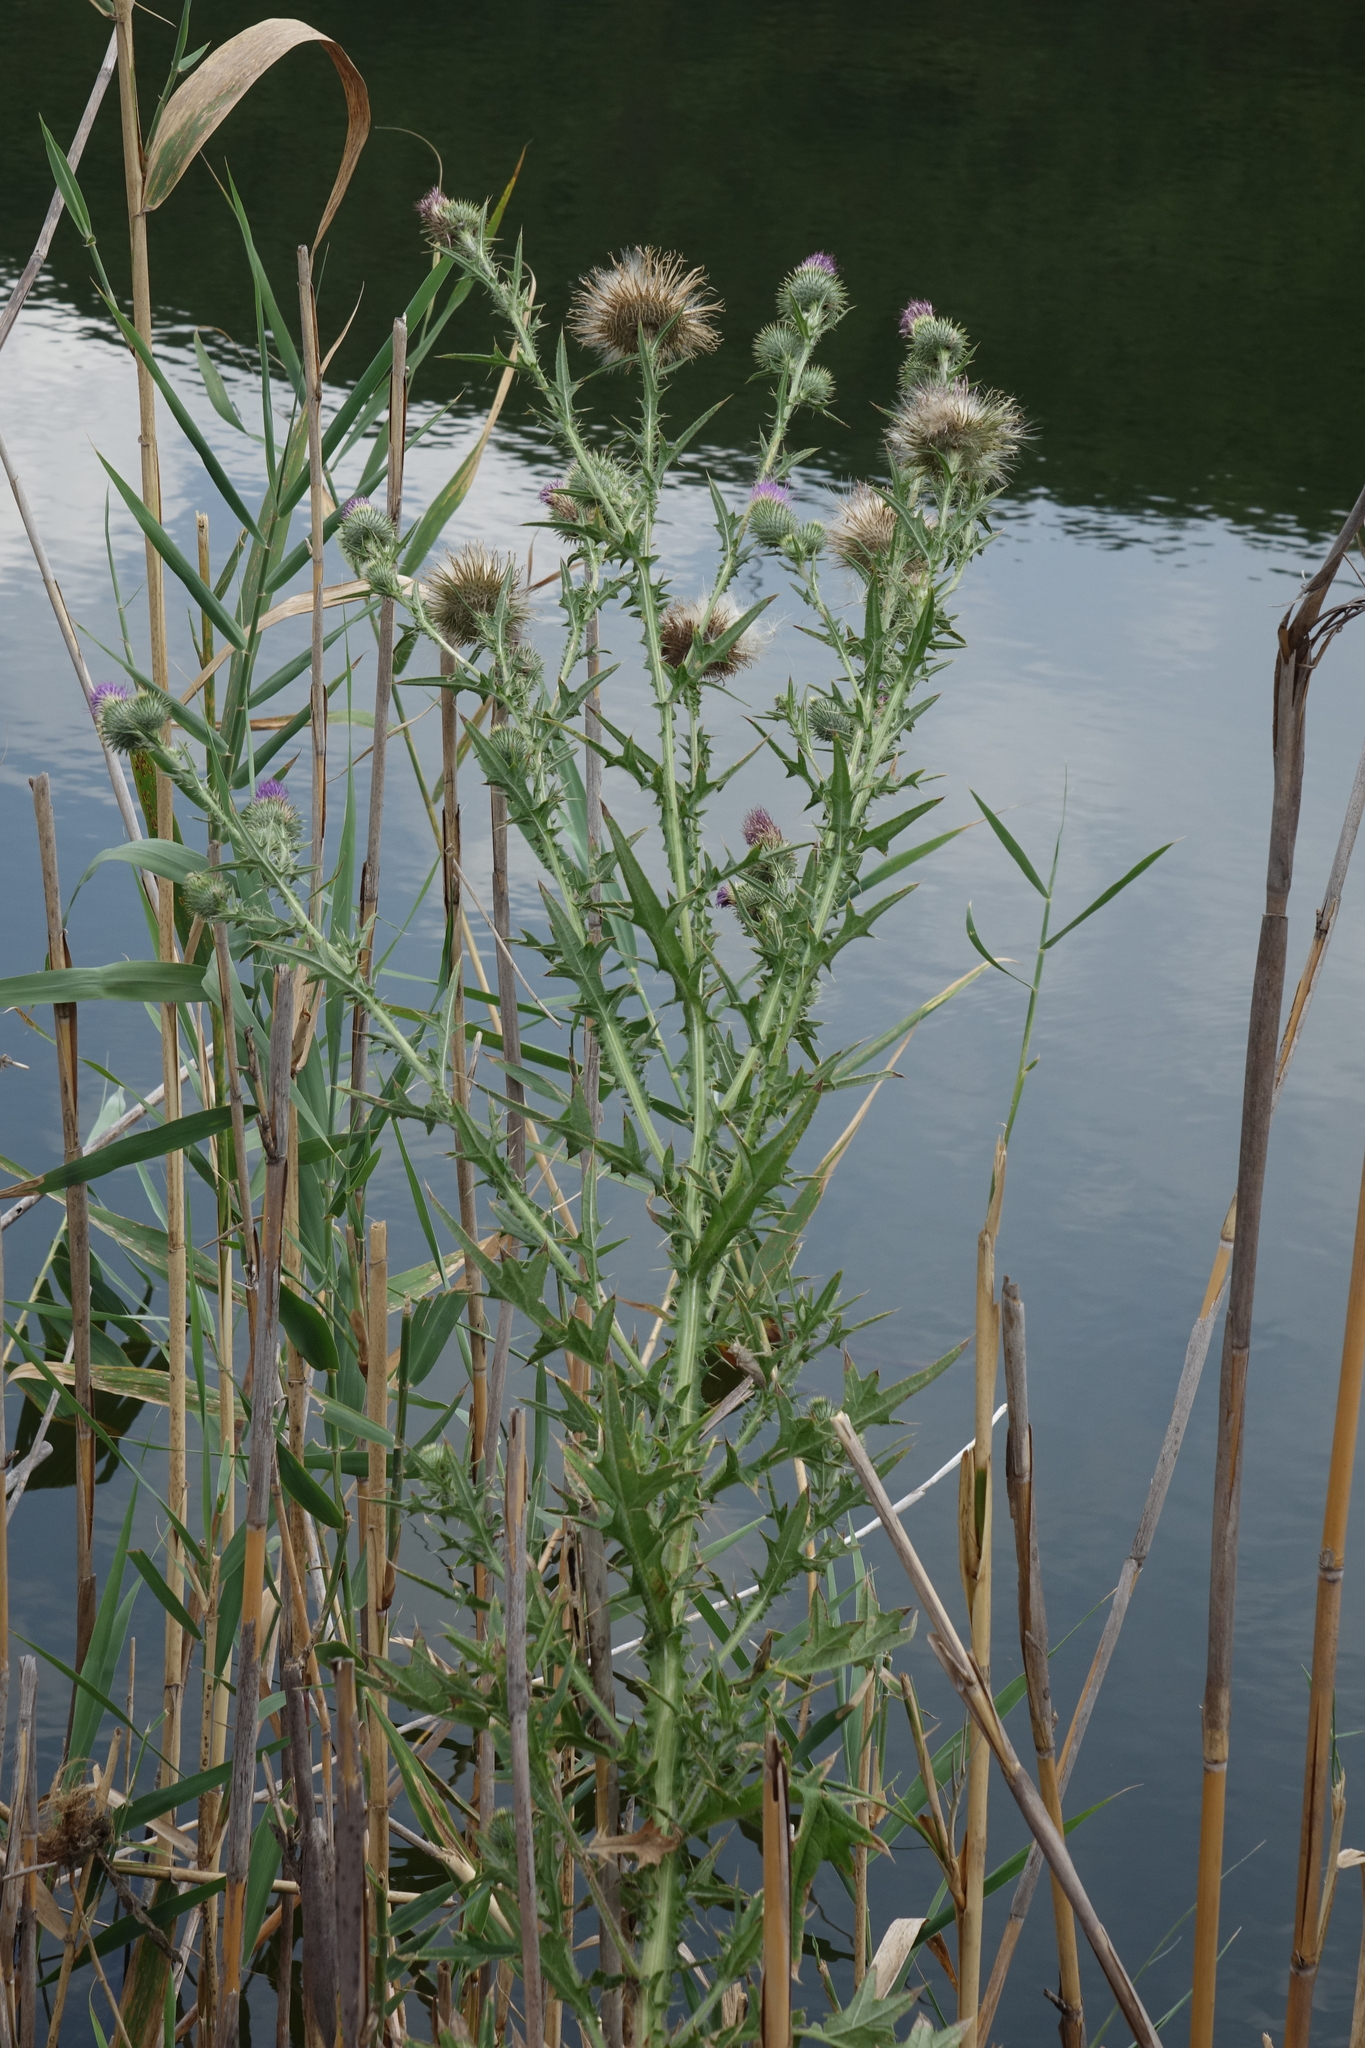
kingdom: Plantae
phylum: Tracheophyta
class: Magnoliopsida
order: Asterales
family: Asteraceae
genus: Cirsium
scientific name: Cirsium vulgare
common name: Bull thistle
